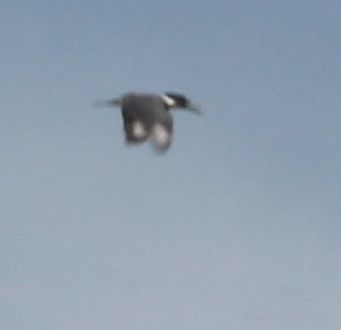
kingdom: Animalia
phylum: Chordata
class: Aves
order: Coraciiformes
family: Alcedinidae
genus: Megaceryle
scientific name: Megaceryle alcyon
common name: Belted kingfisher
